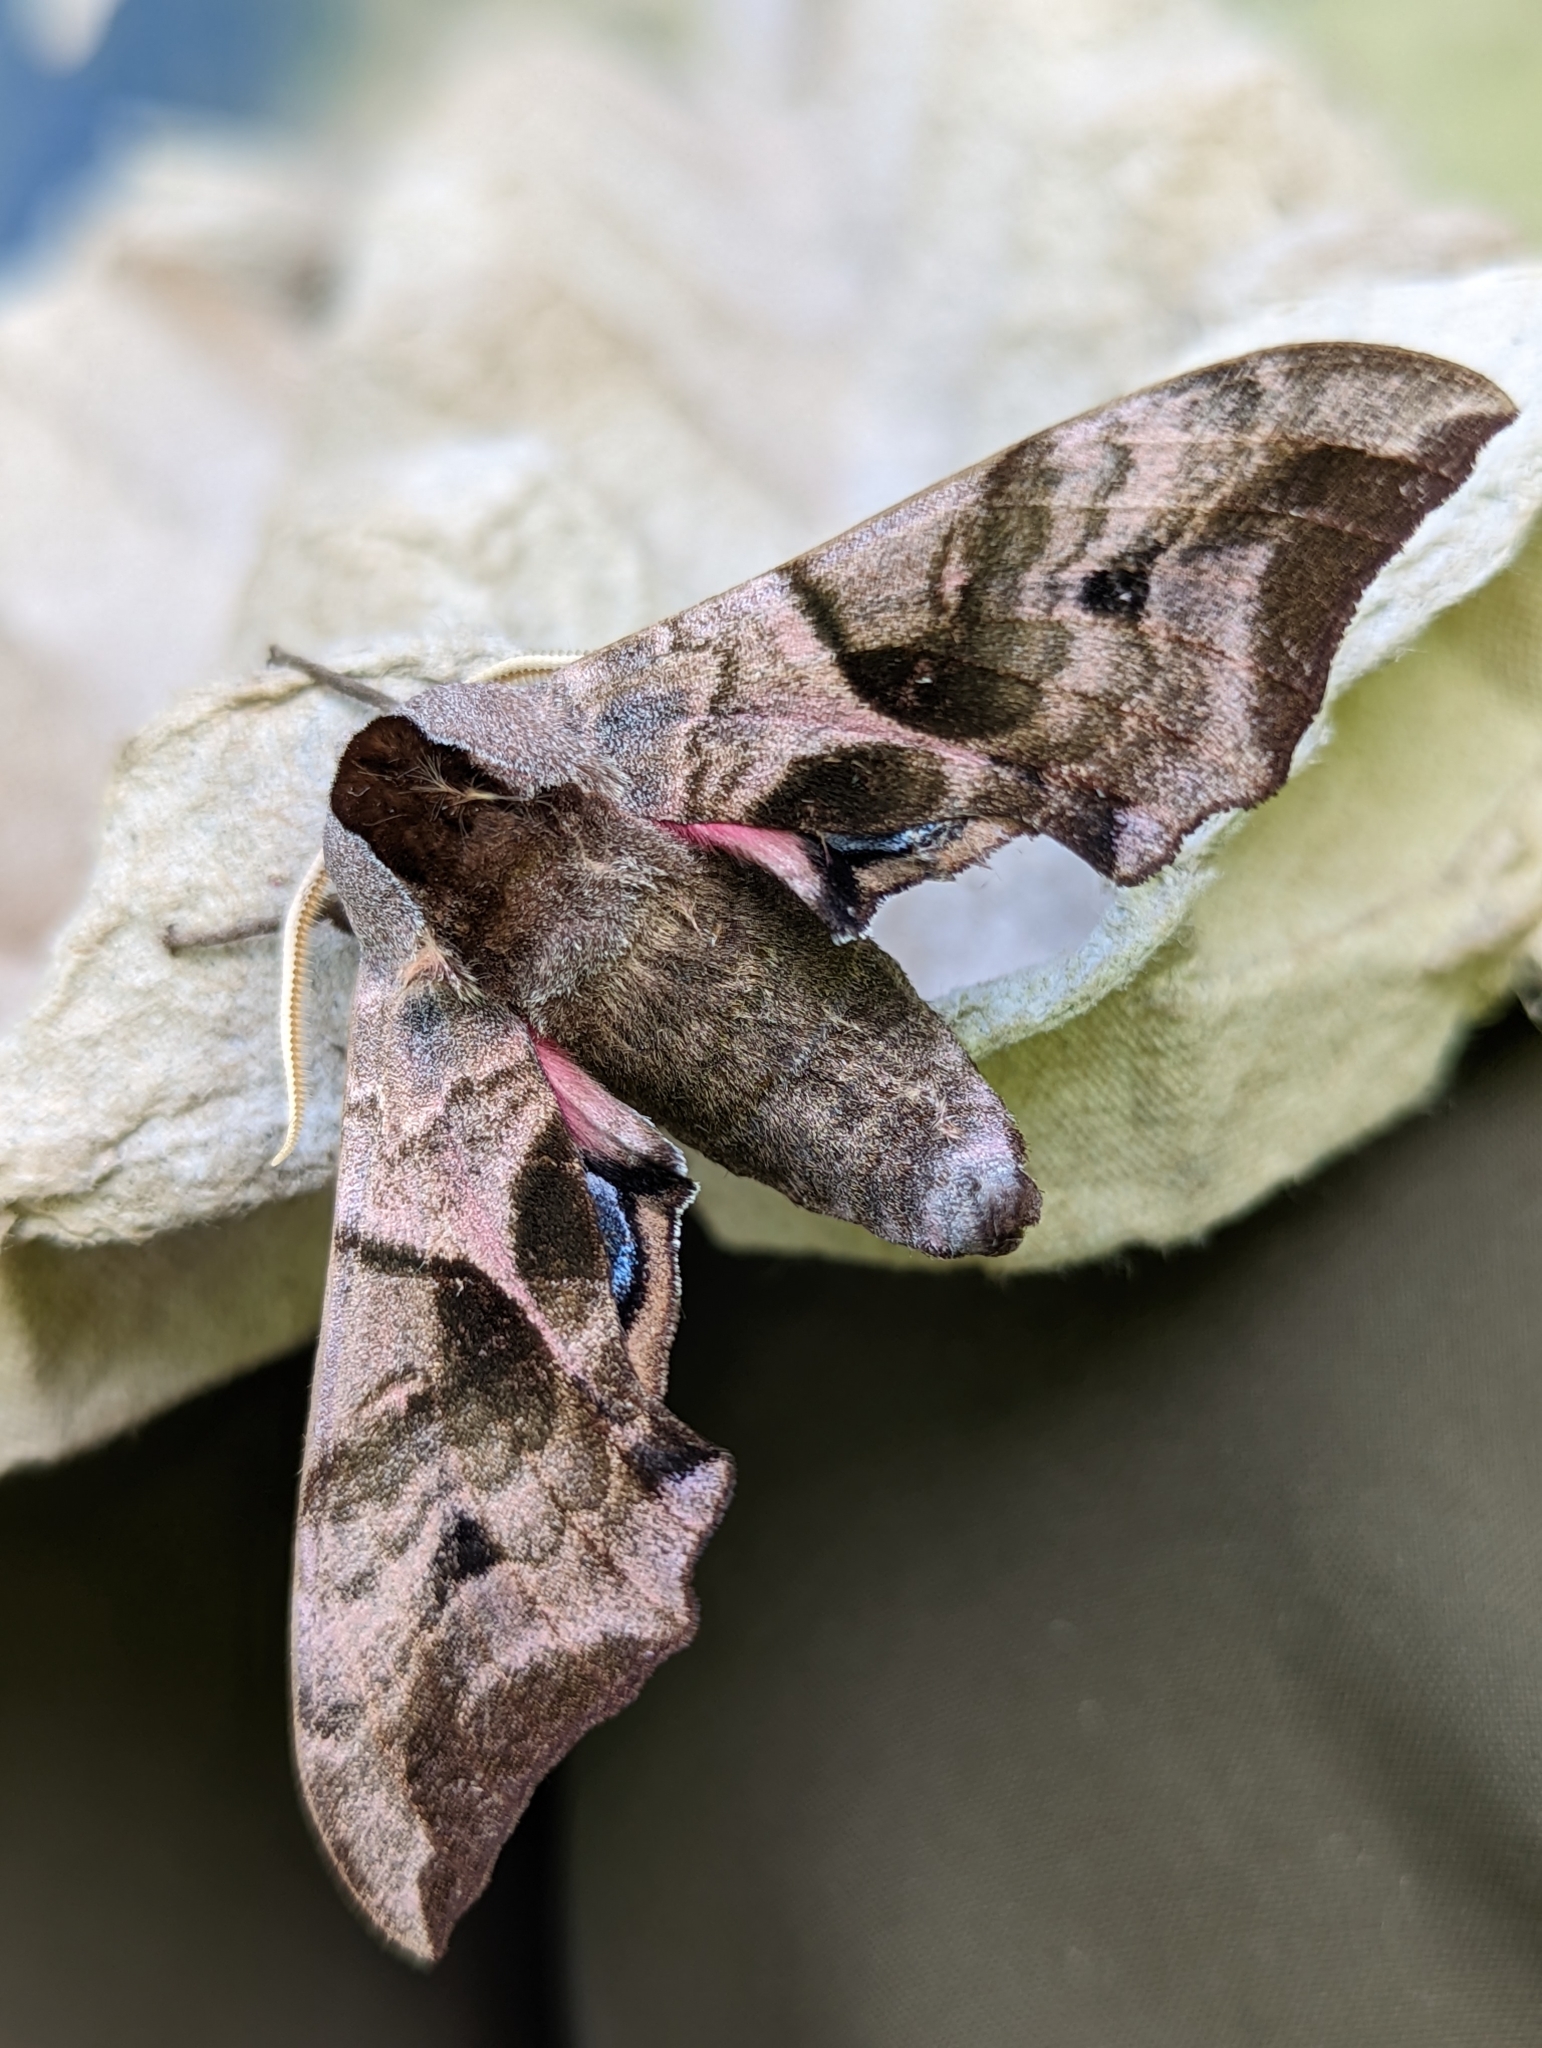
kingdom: Animalia
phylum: Arthropoda
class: Insecta
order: Lepidoptera
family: Sphingidae
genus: Smerinthus
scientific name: Smerinthus ocellata
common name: Eyed hawk-moth
